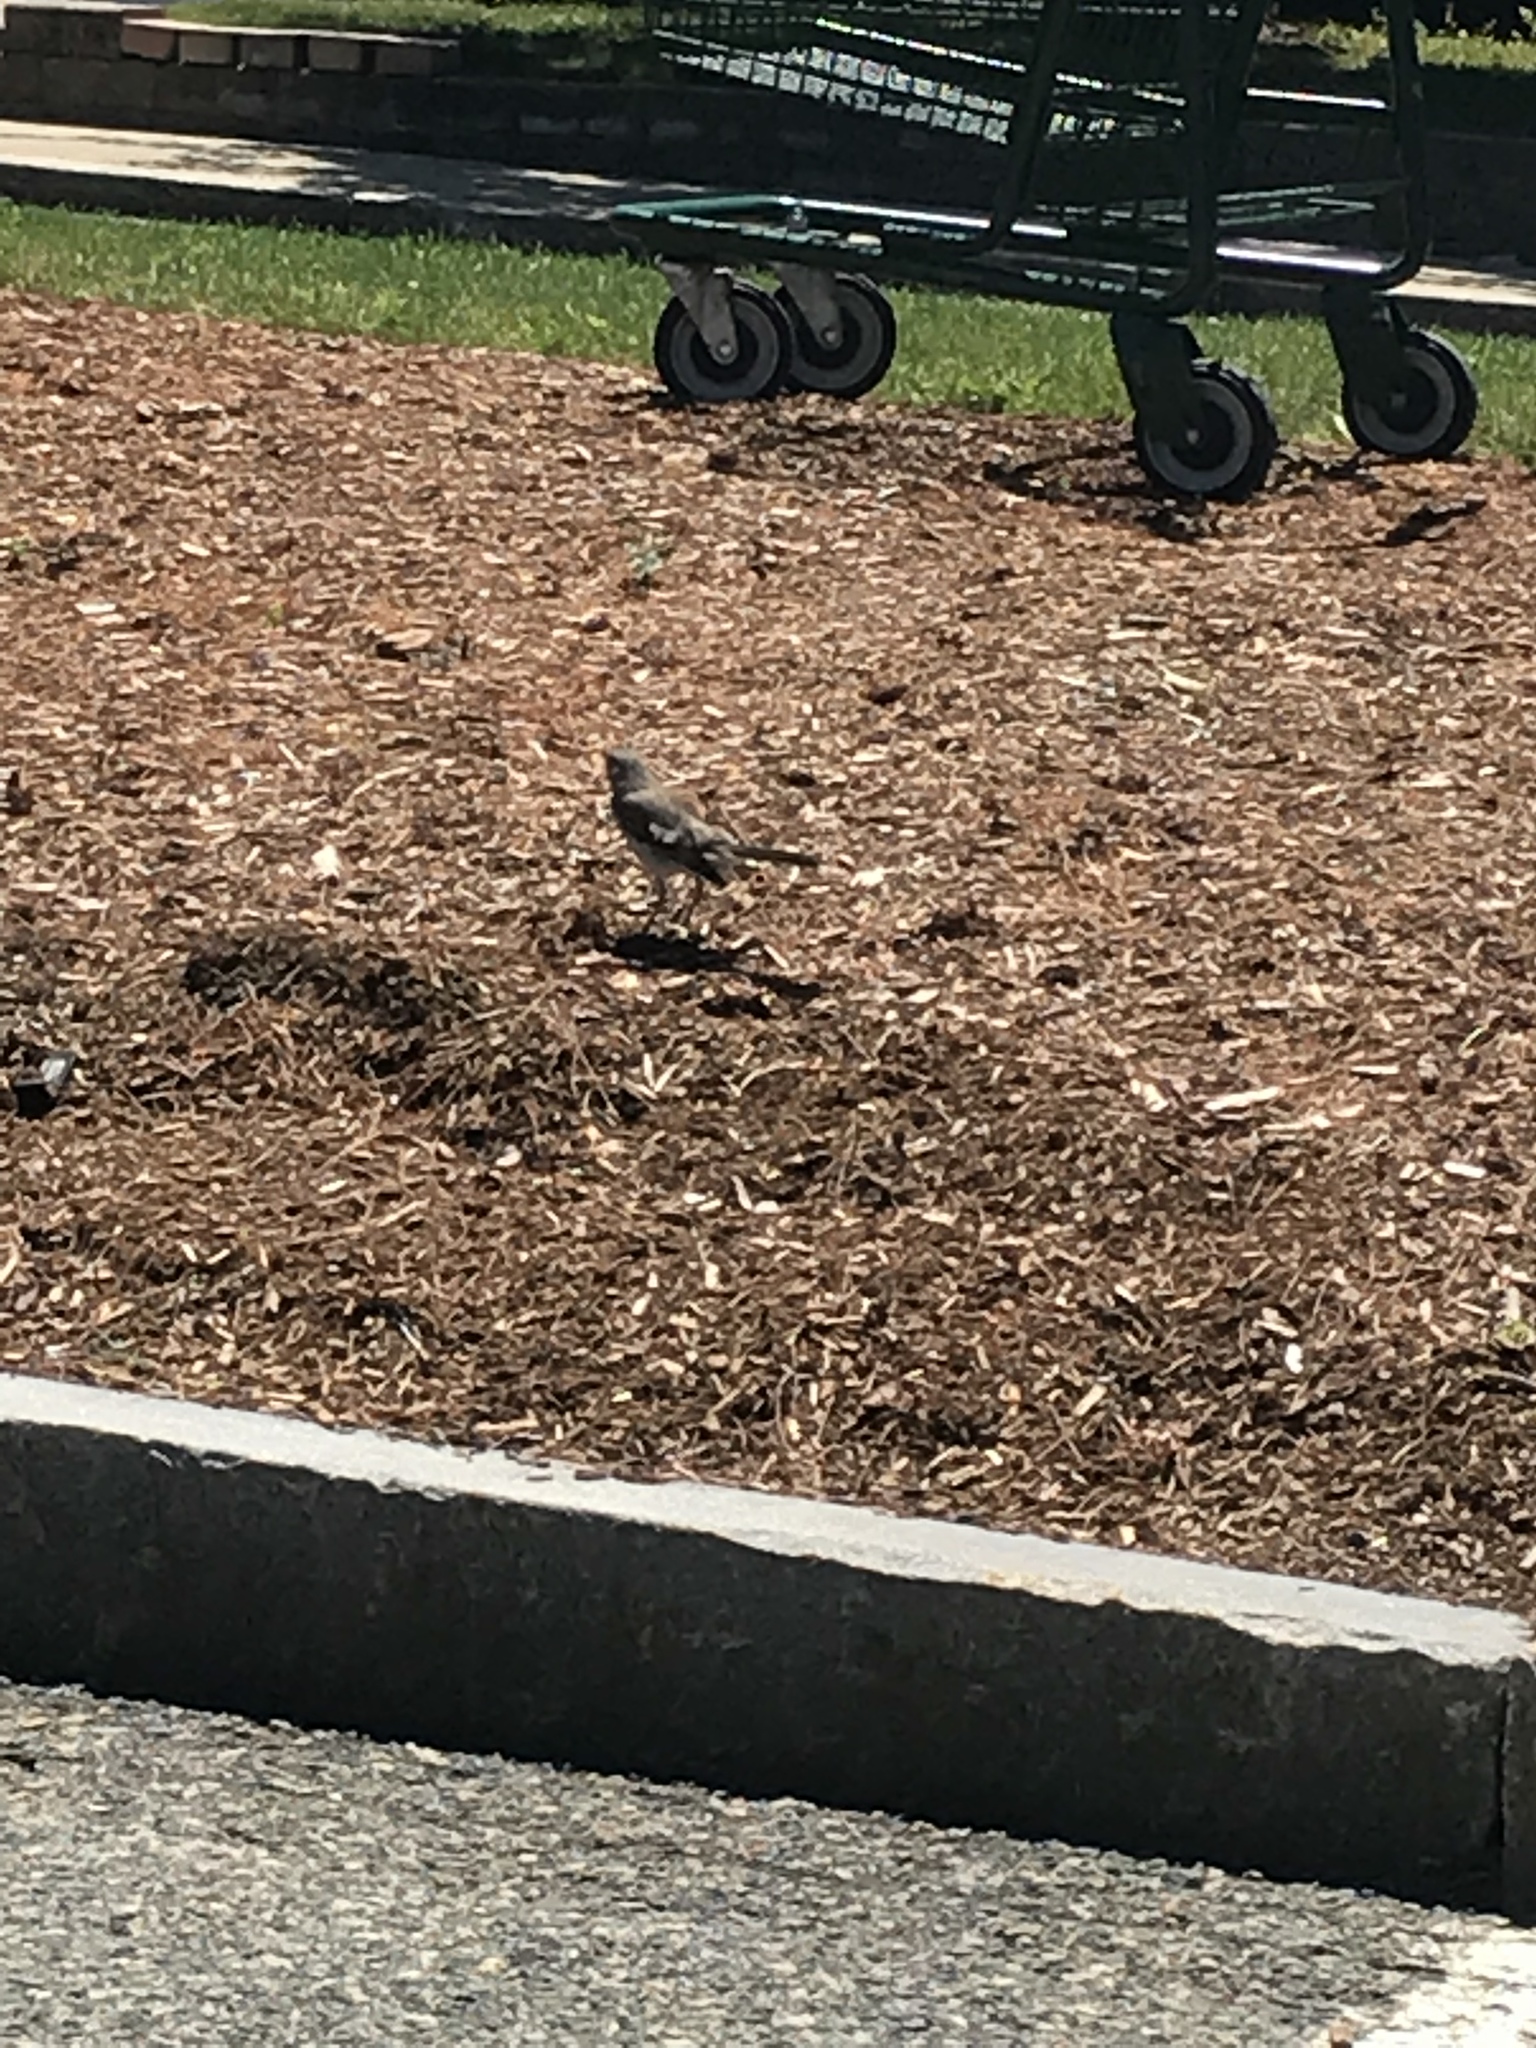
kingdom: Animalia
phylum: Chordata
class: Aves
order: Passeriformes
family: Mimidae
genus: Mimus
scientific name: Mimus polyglottos
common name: Northern mockingbird
